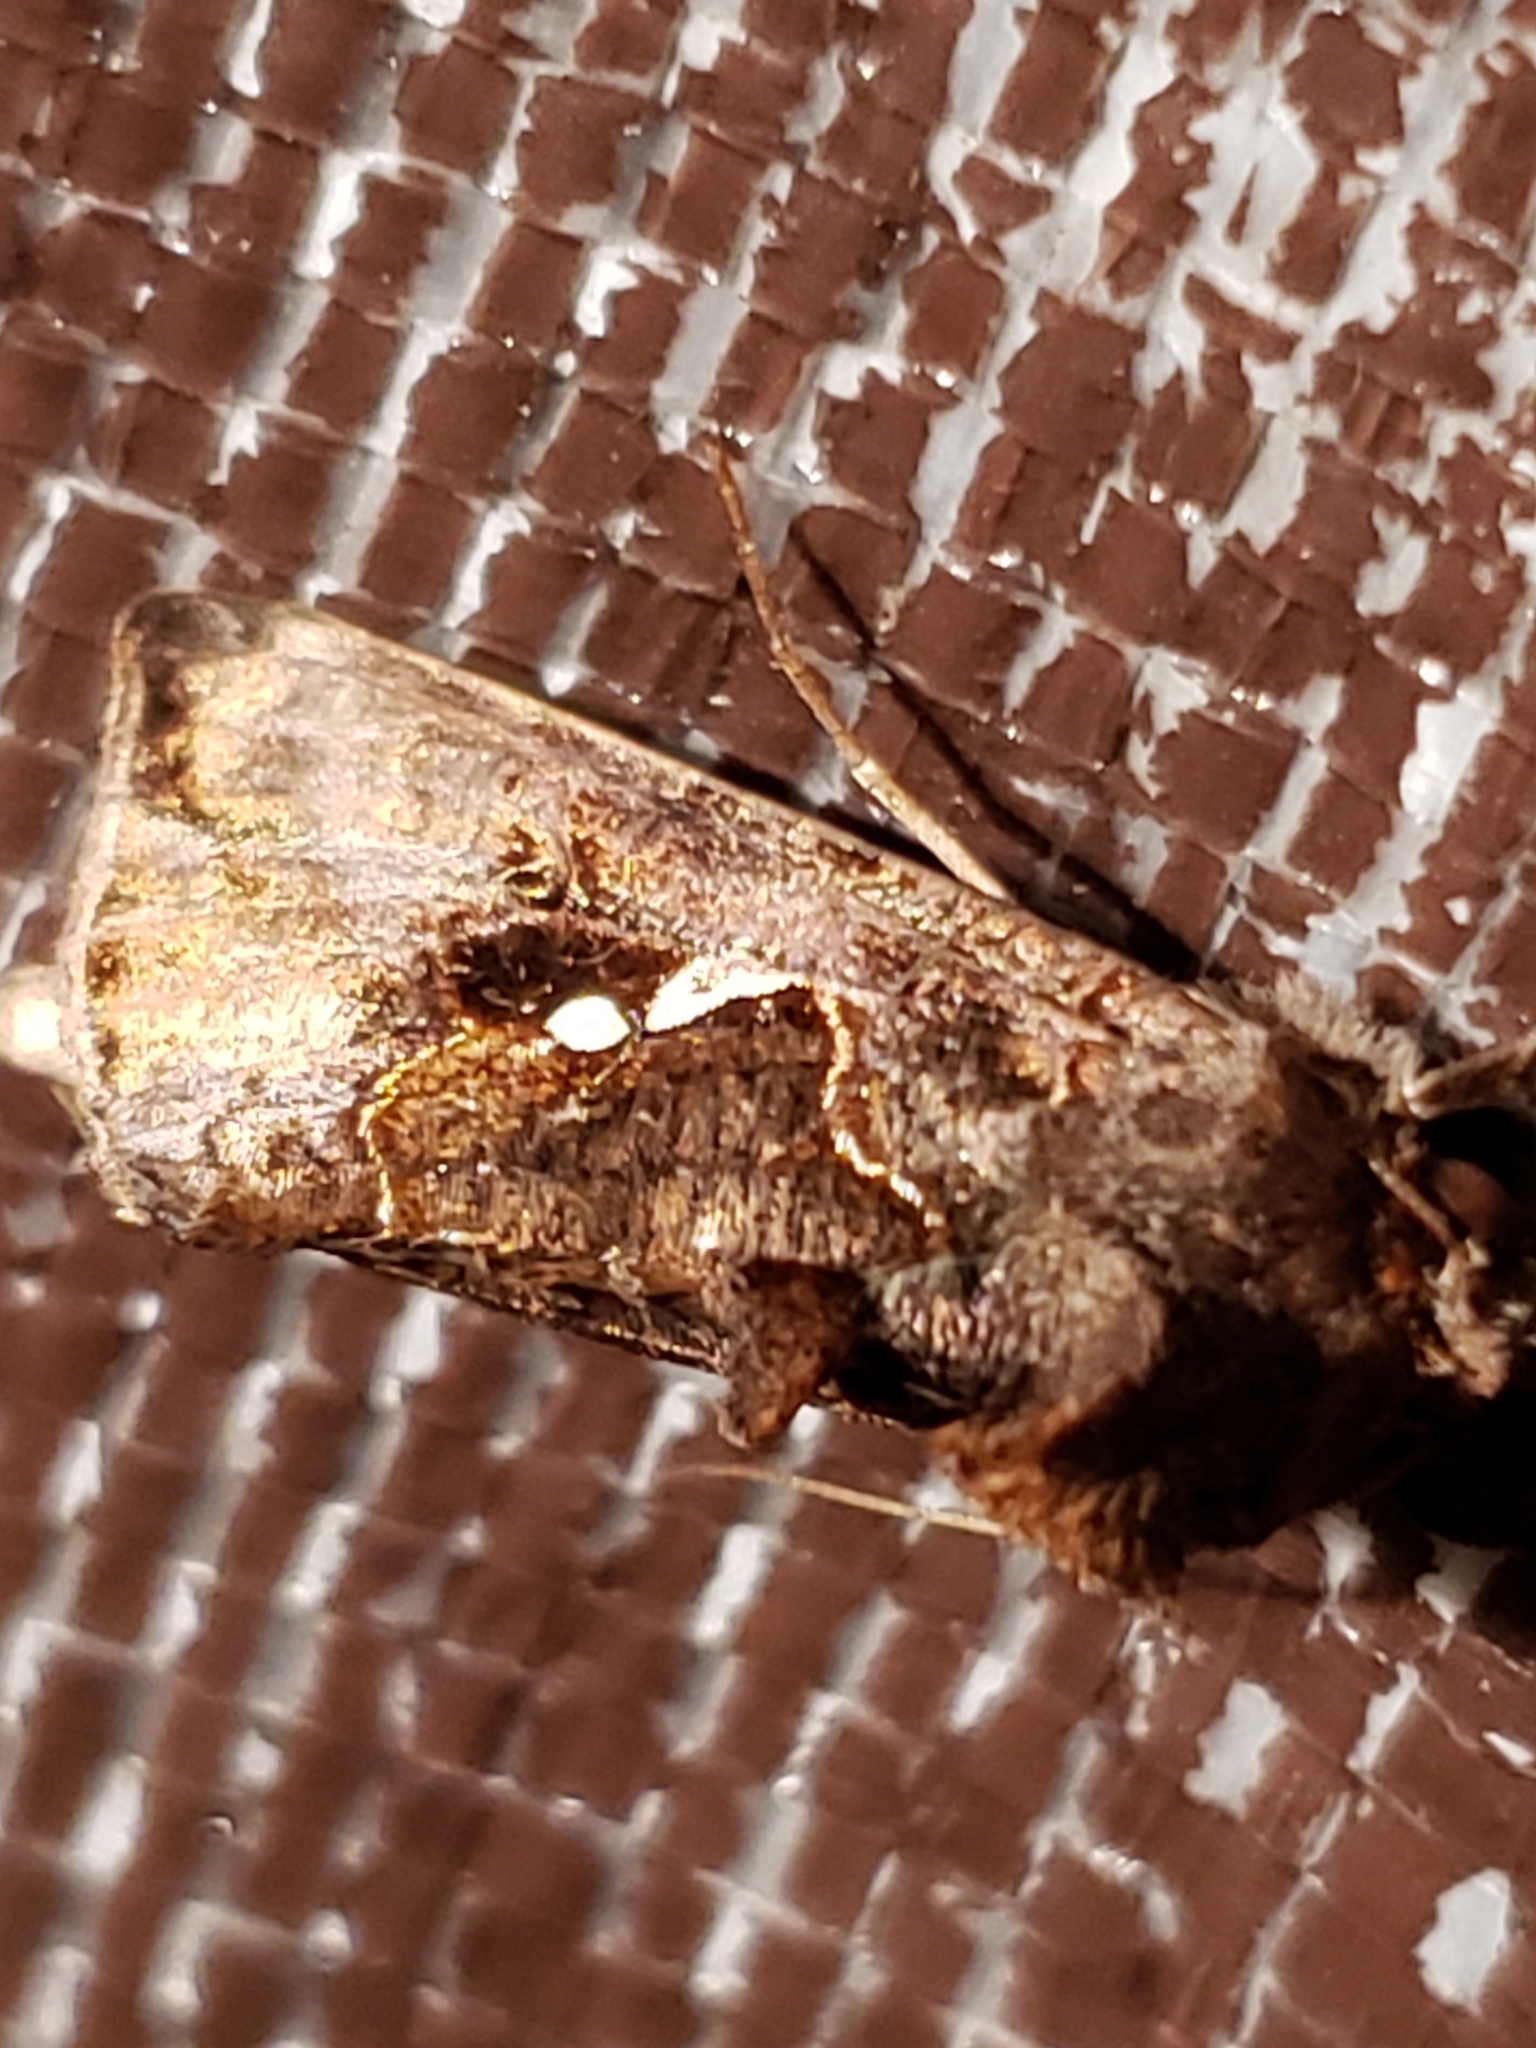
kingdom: Animalia
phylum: Arthropoda
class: Insecta
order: Lepidoptera
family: Noctuidae
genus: Autographa
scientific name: Autographa precationis
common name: Common looper moth
